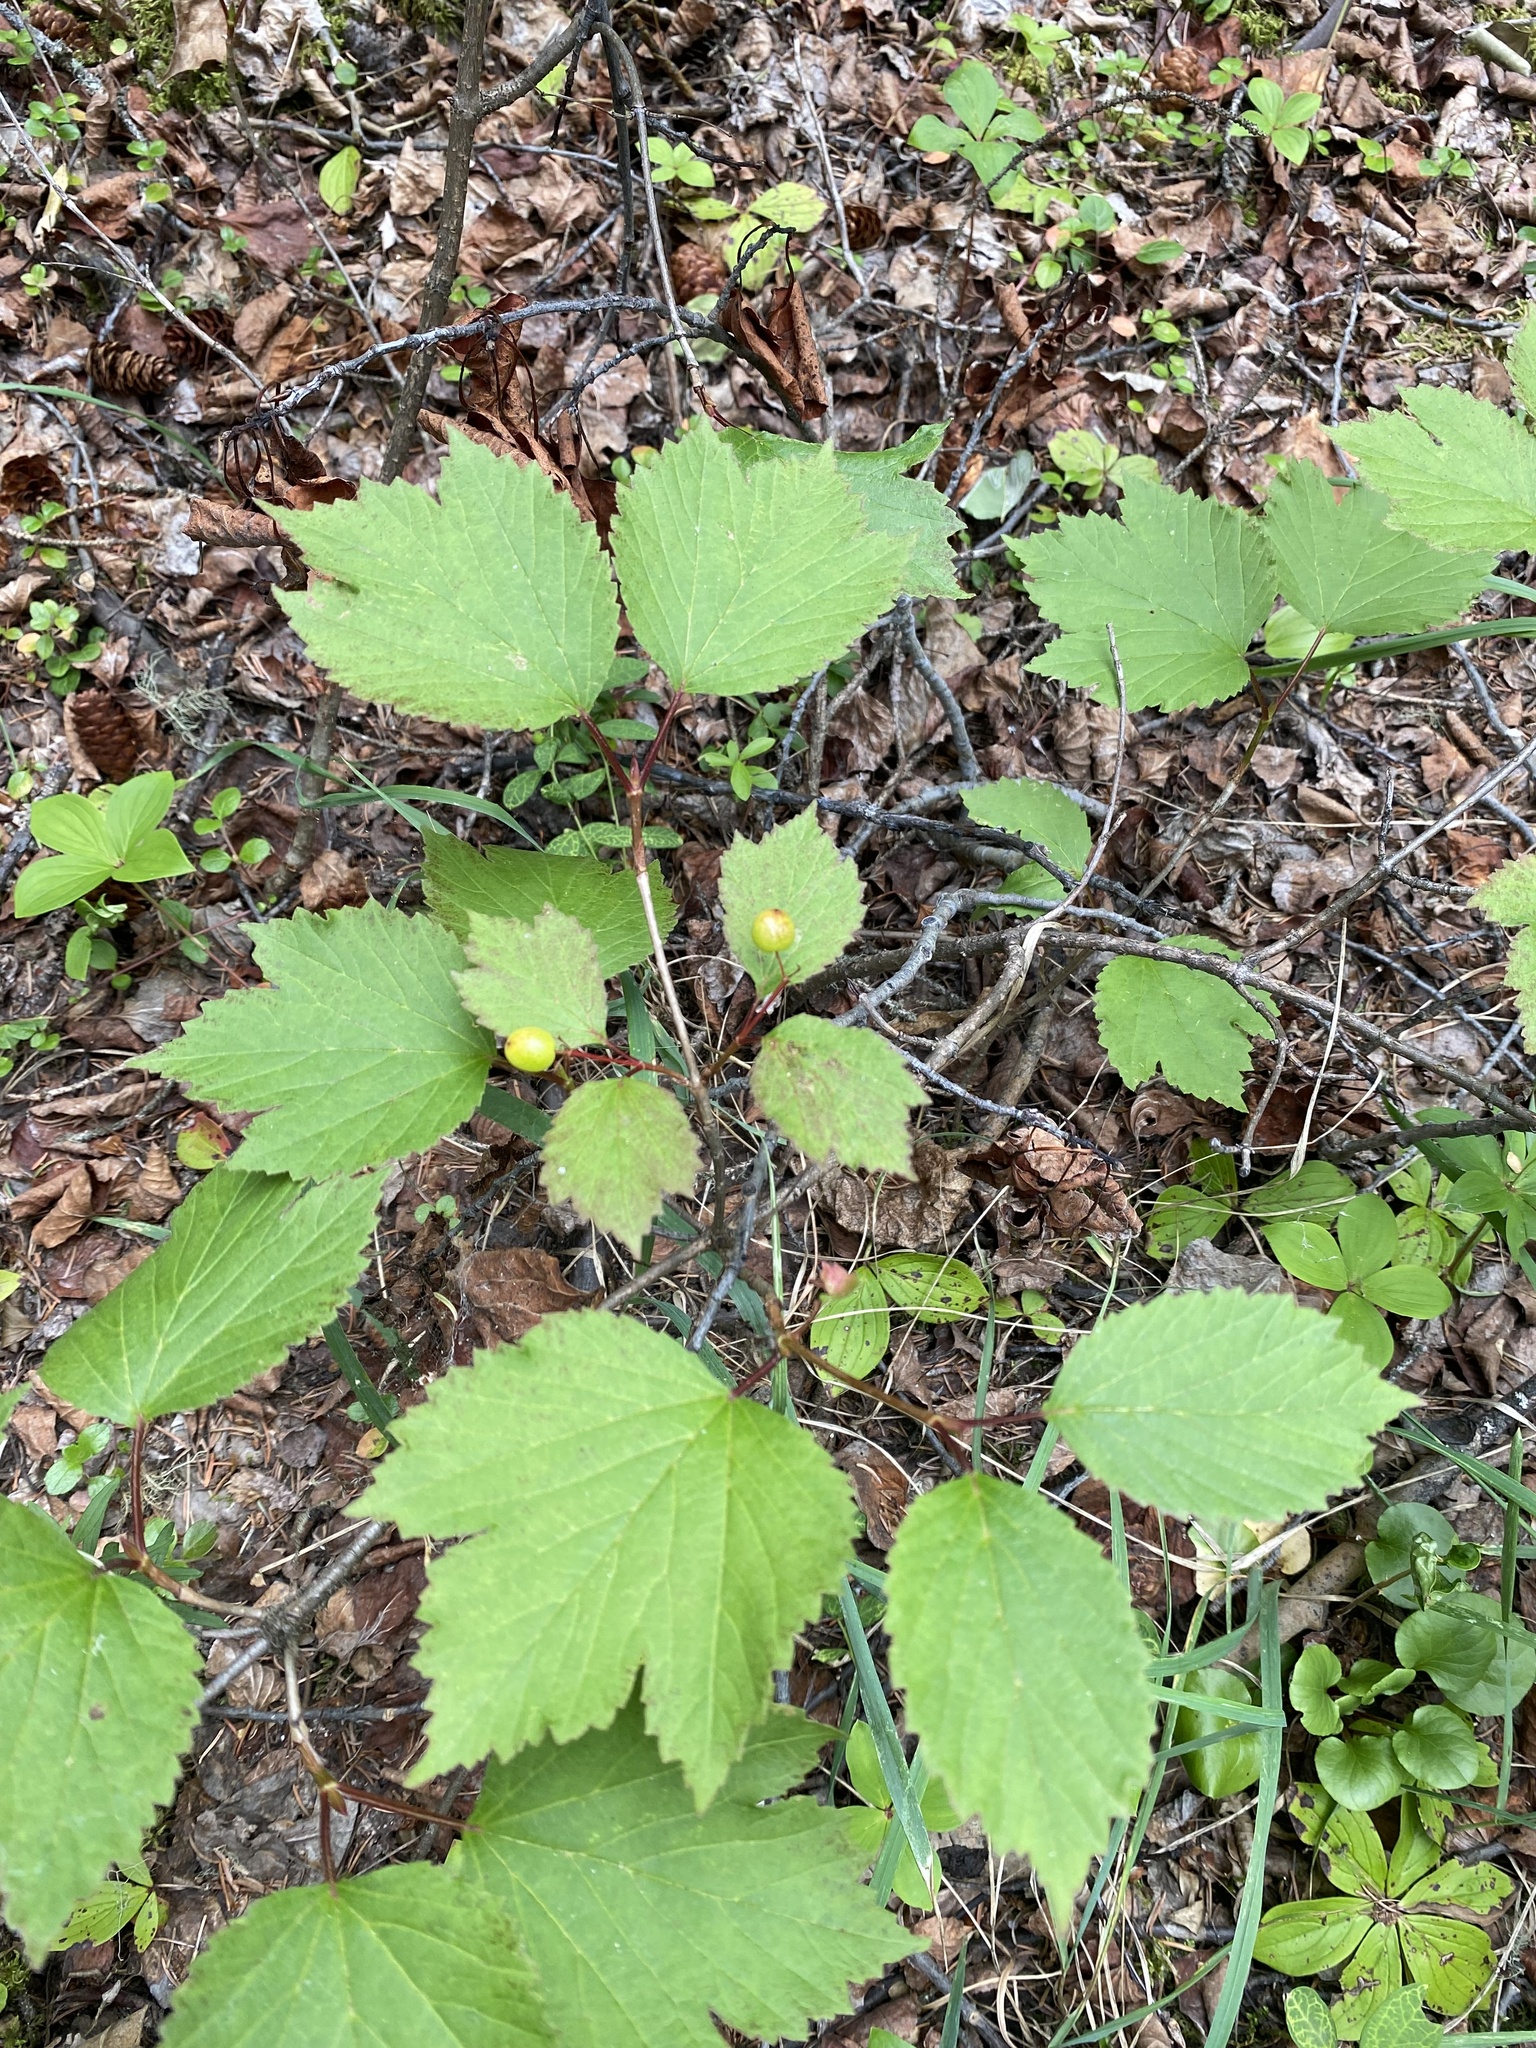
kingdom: Plantae
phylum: Tracheophyta
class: Magnoliopsida
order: Dipsacales
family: Viburnaceae
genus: Viburnum
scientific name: Viburnum edule
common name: Mooseberry
